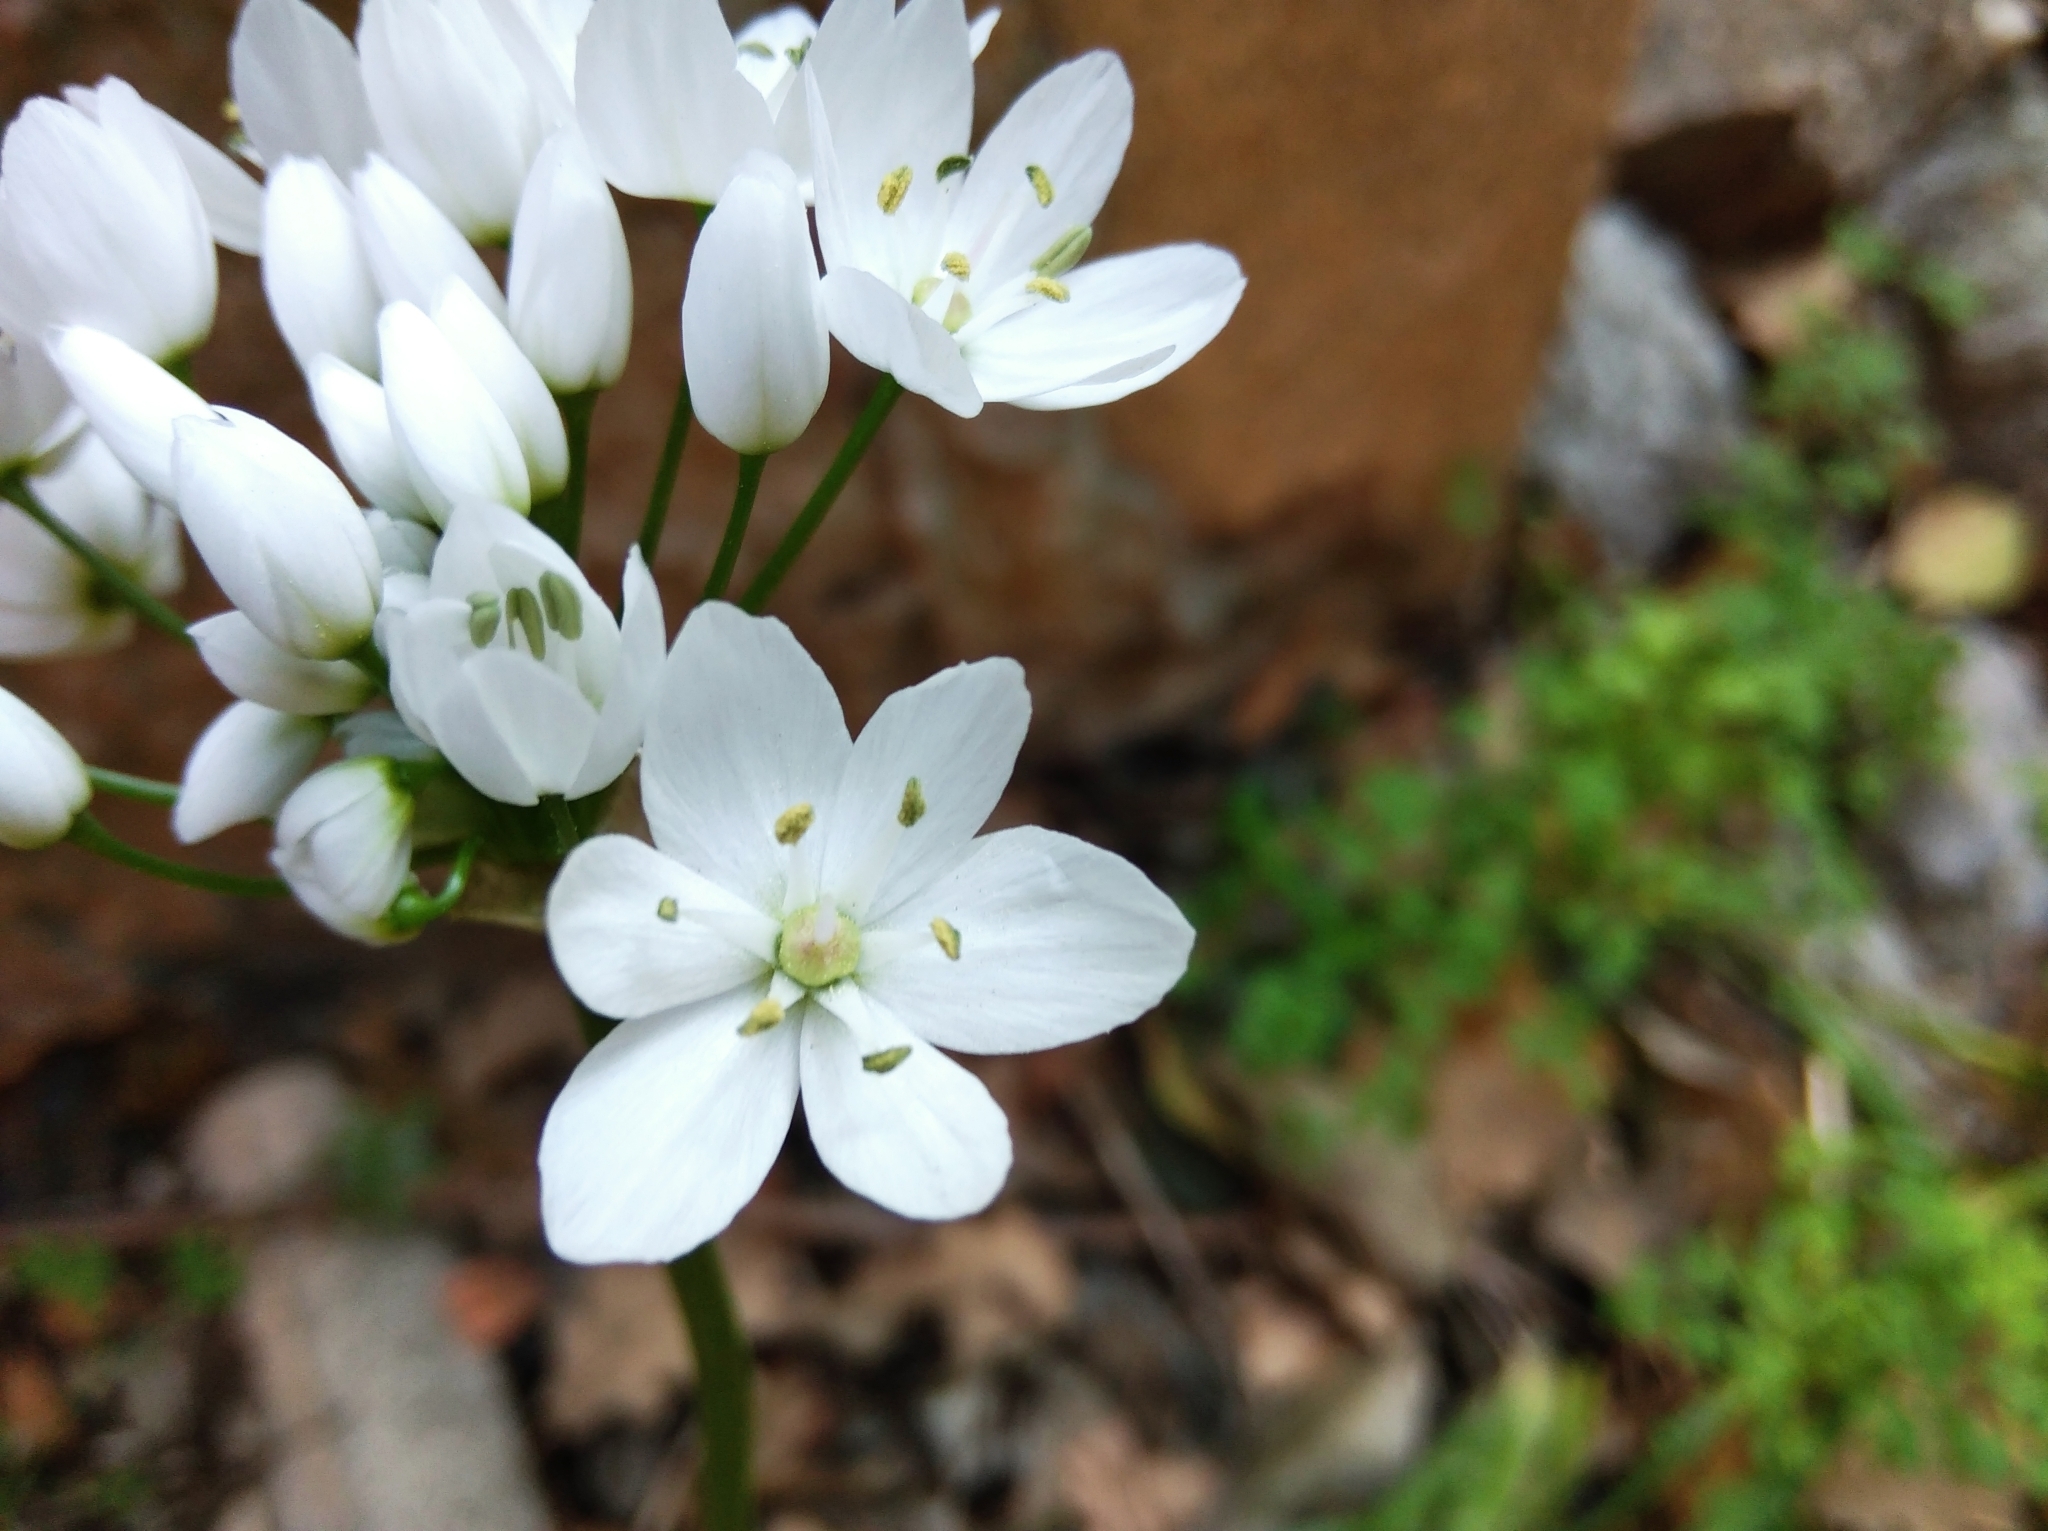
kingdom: Plantae
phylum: Tracheophyta
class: Liliopsida
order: Asparagales
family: Amaryllidaceae
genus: Allium
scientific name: Allium neapolitanum
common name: Neapolitan garlic
